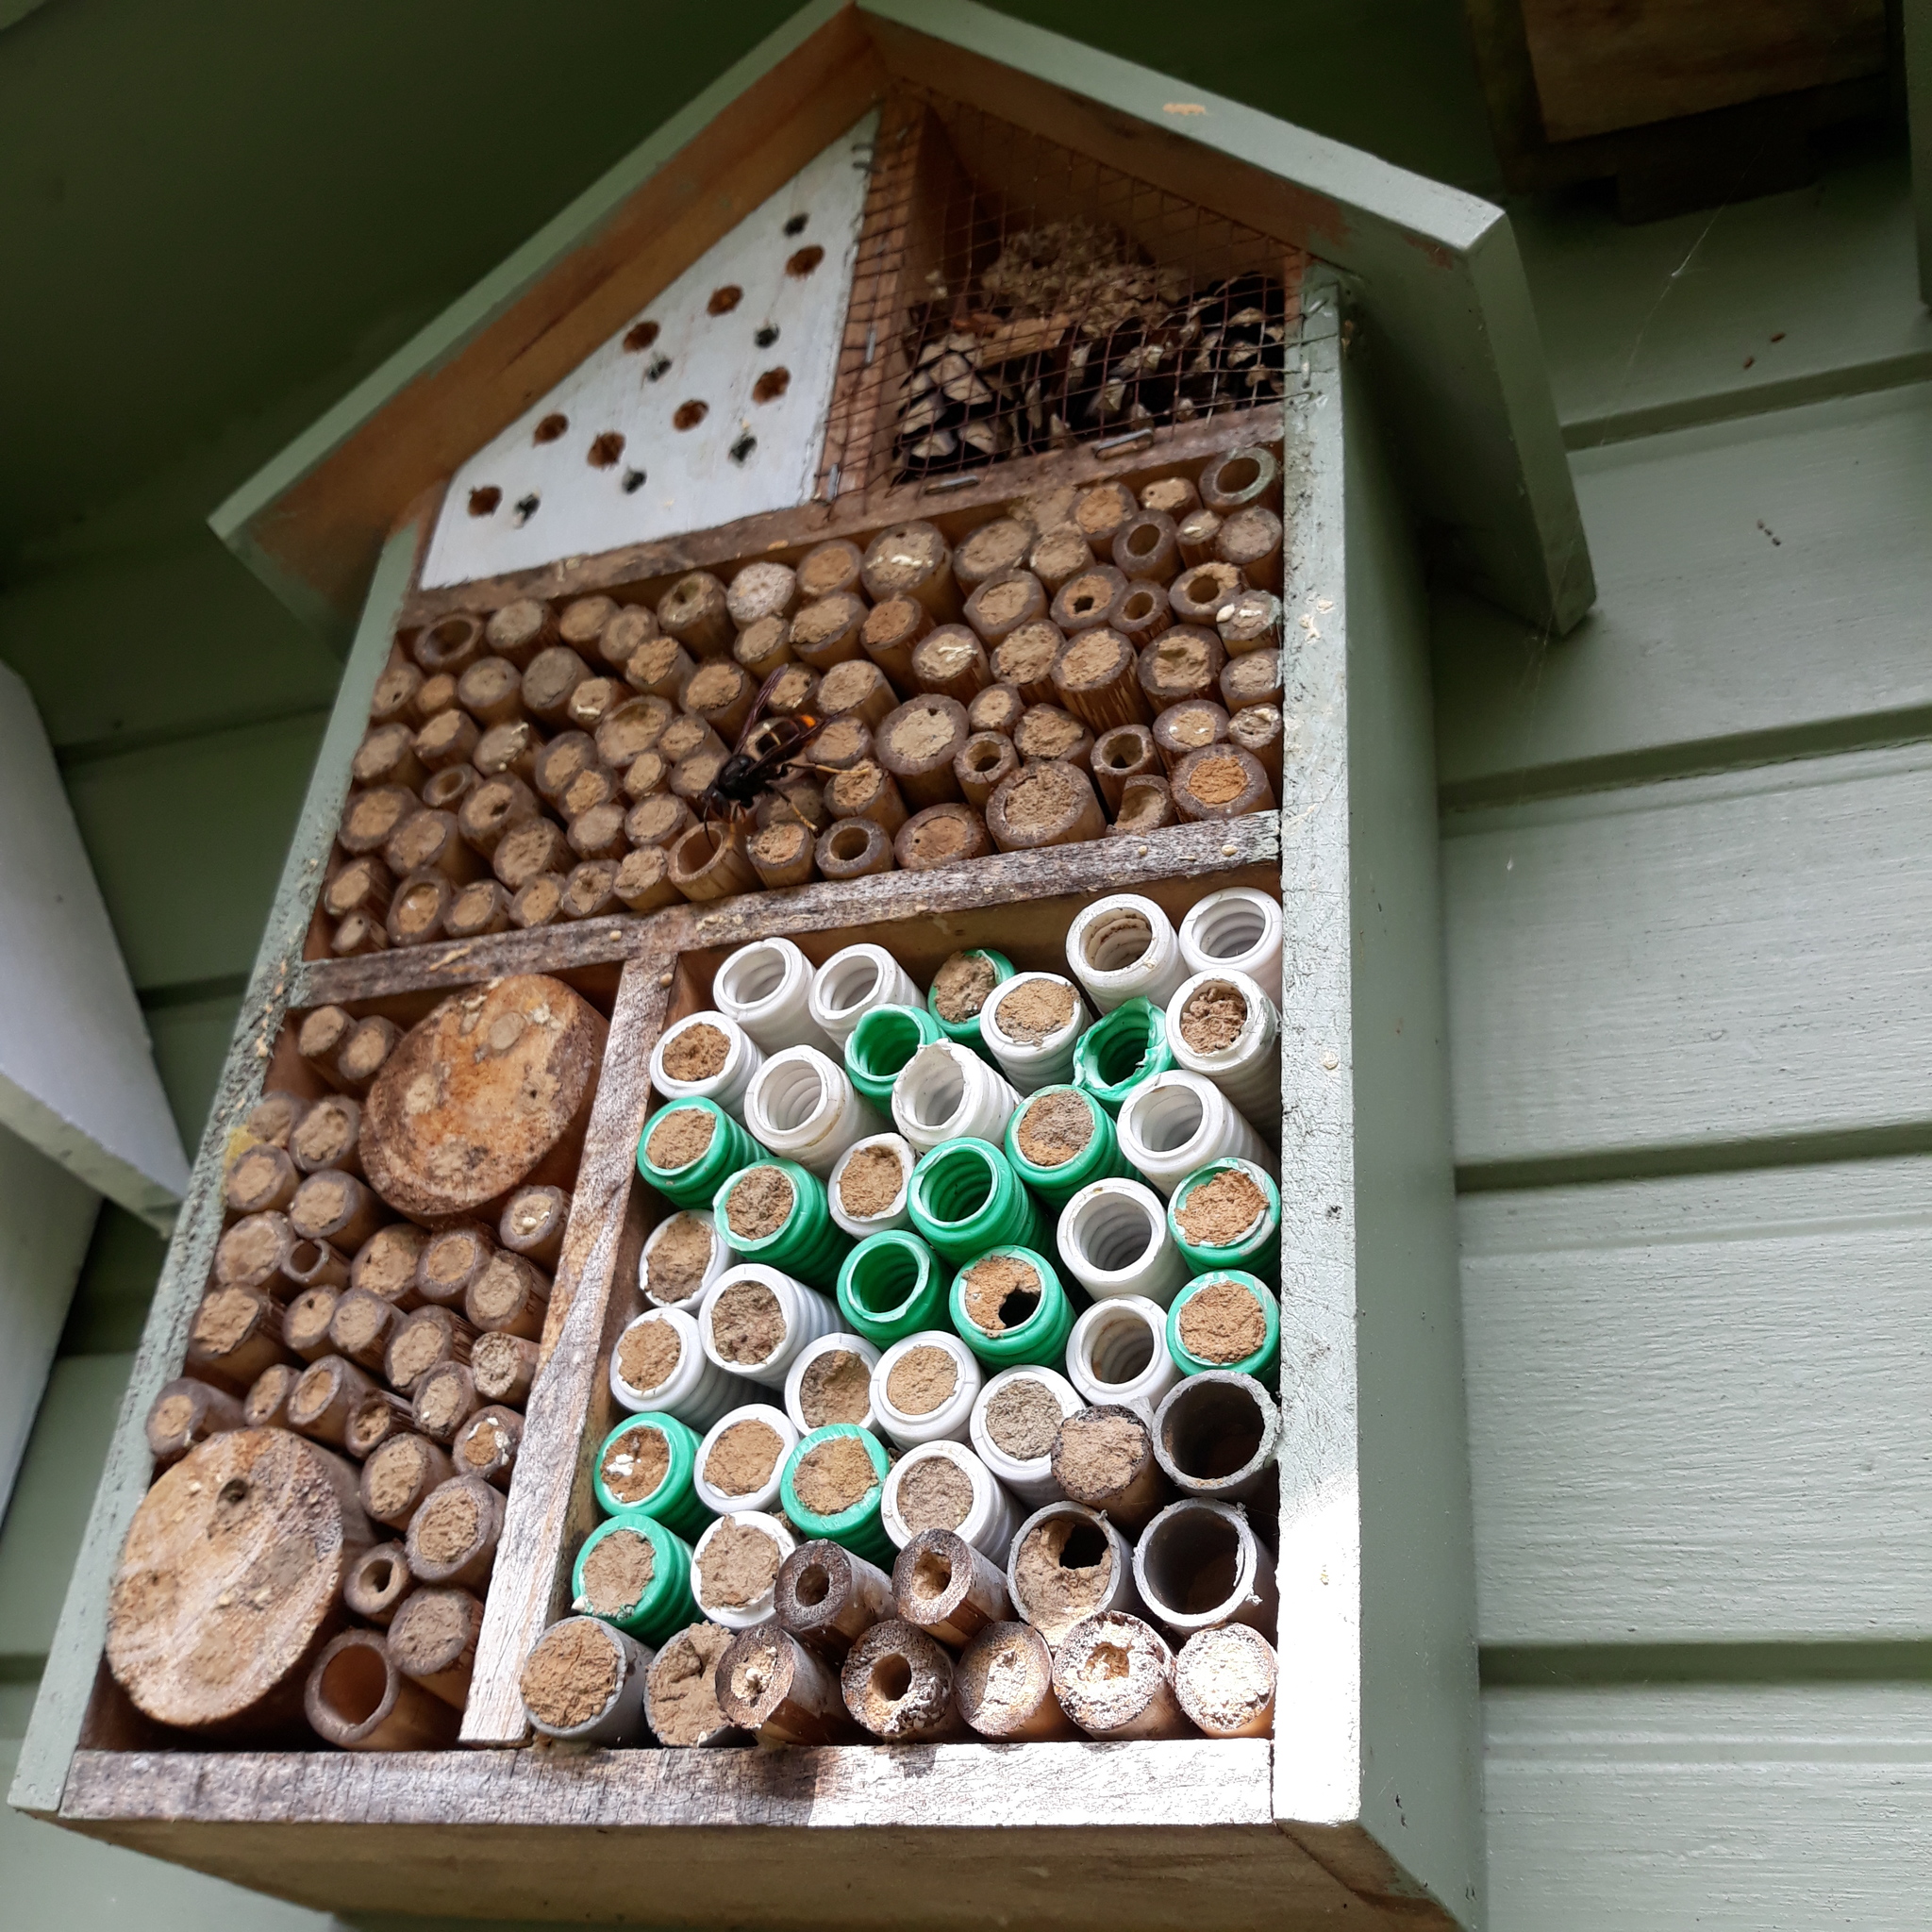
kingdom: Animalia
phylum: Arthropoda
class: Insecta
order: Hymenoptera
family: Vespidae
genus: Vespa
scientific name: Vespa velutina
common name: Asian hornet
